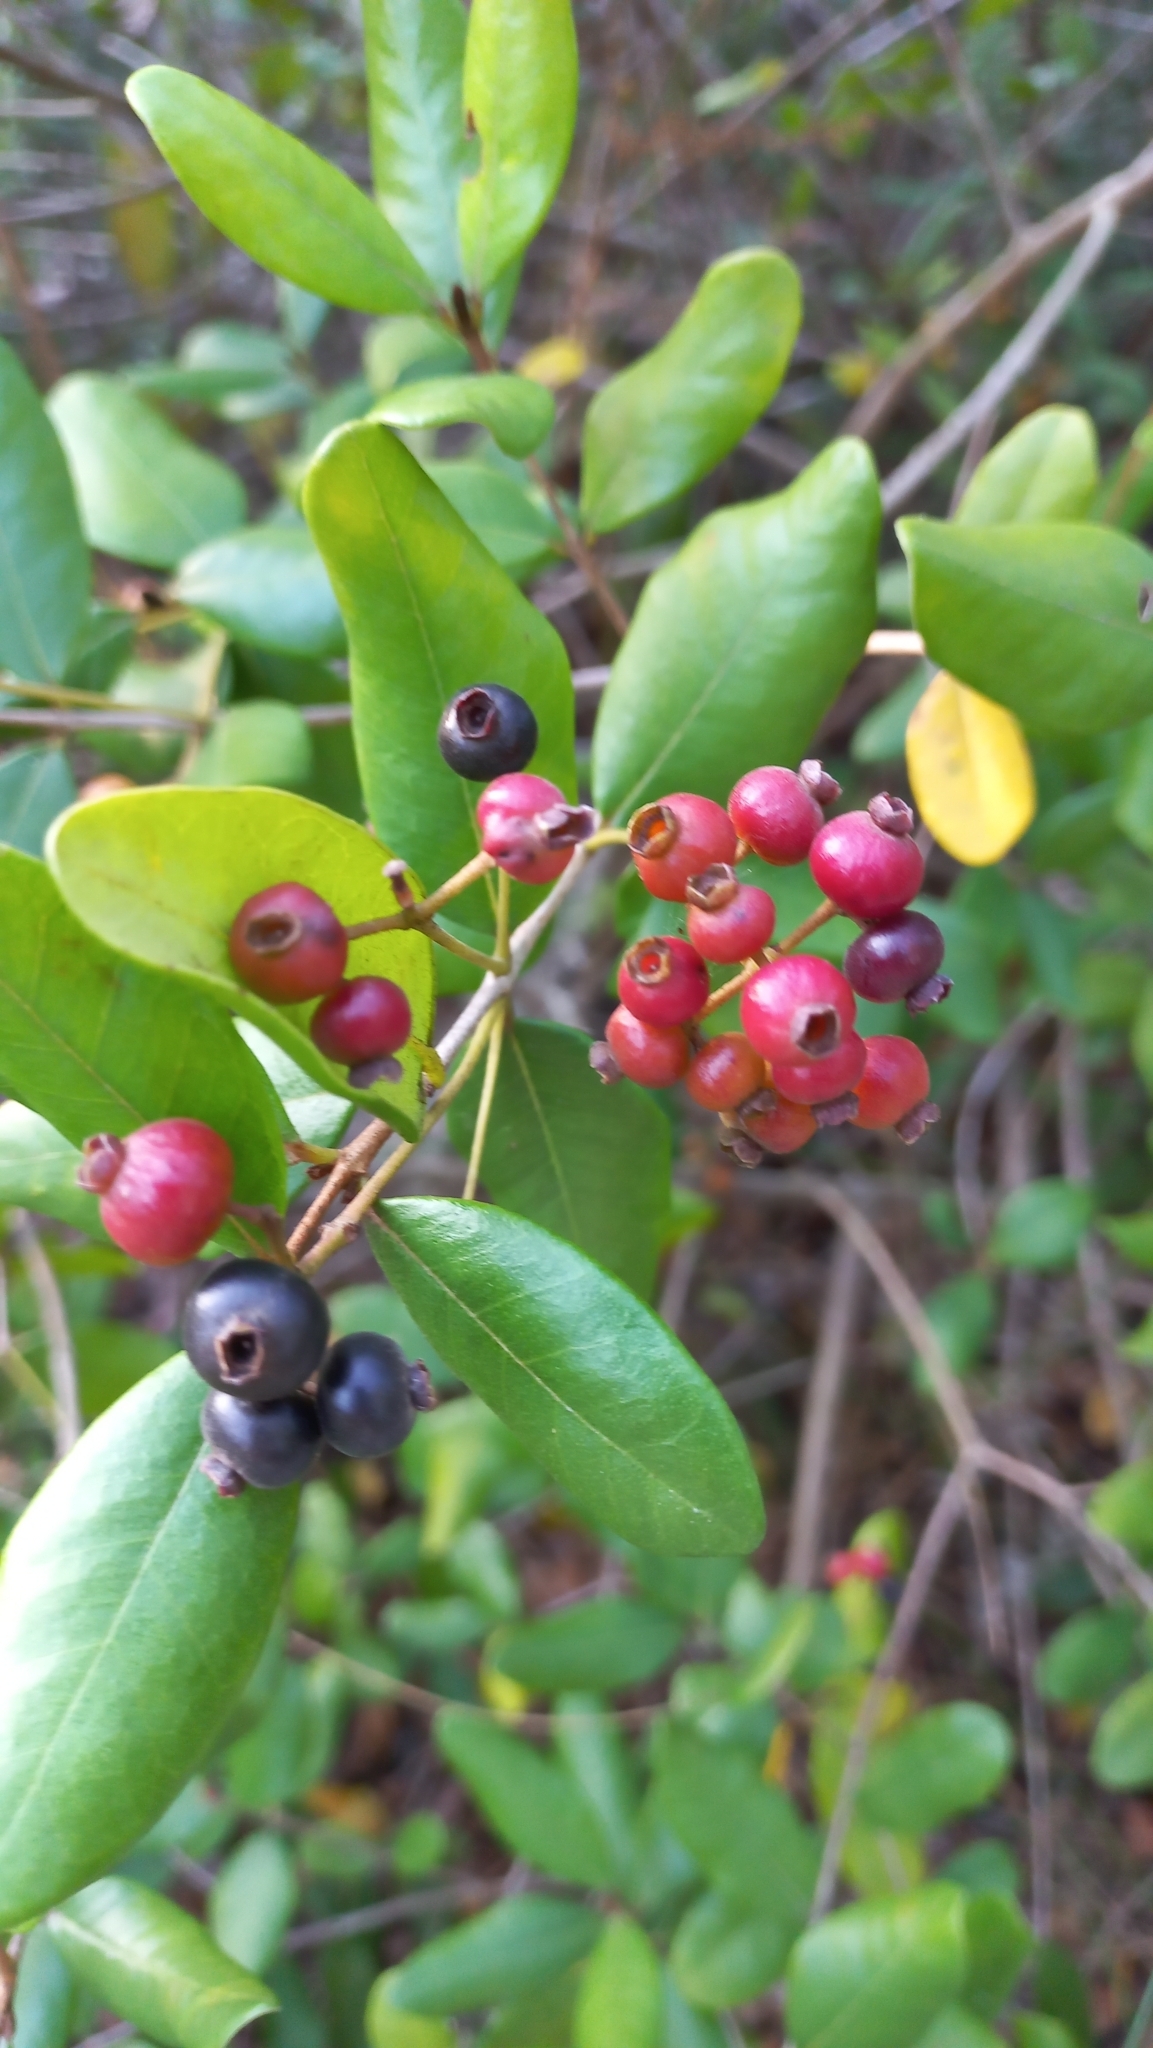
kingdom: Plantae
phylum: Tracheophyta
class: Magnoliopsida
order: Myrtales
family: Myrtaceae
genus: Myrcia
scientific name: Myrcia palustris
